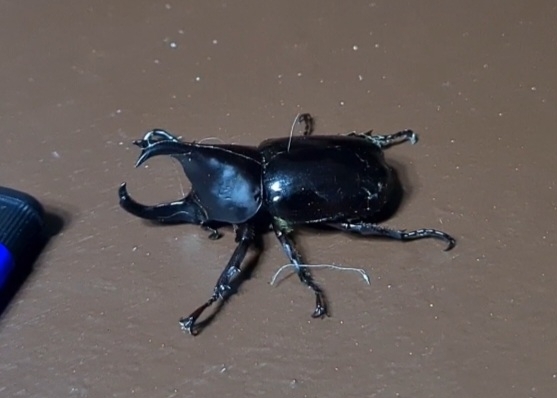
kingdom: Animalia
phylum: Arthropoda
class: Insecta
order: Coleoptera
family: Scarabaeidae
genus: Xylotrupes
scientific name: Xylotrupes philippinensis
